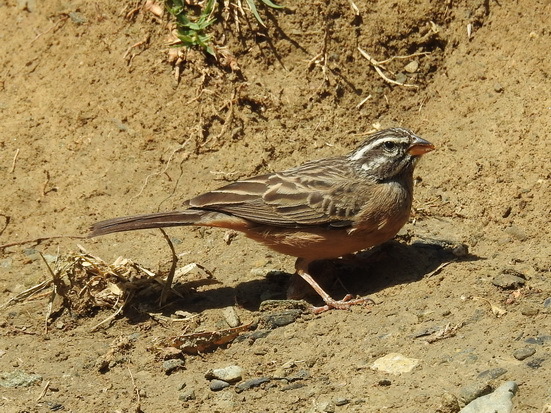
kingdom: Animalia
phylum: Chordata
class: Aves
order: Passeriformes
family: Emberizidae
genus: Emberiza
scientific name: Emberiza tahapisi
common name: Cinnamon-breasted bunting
